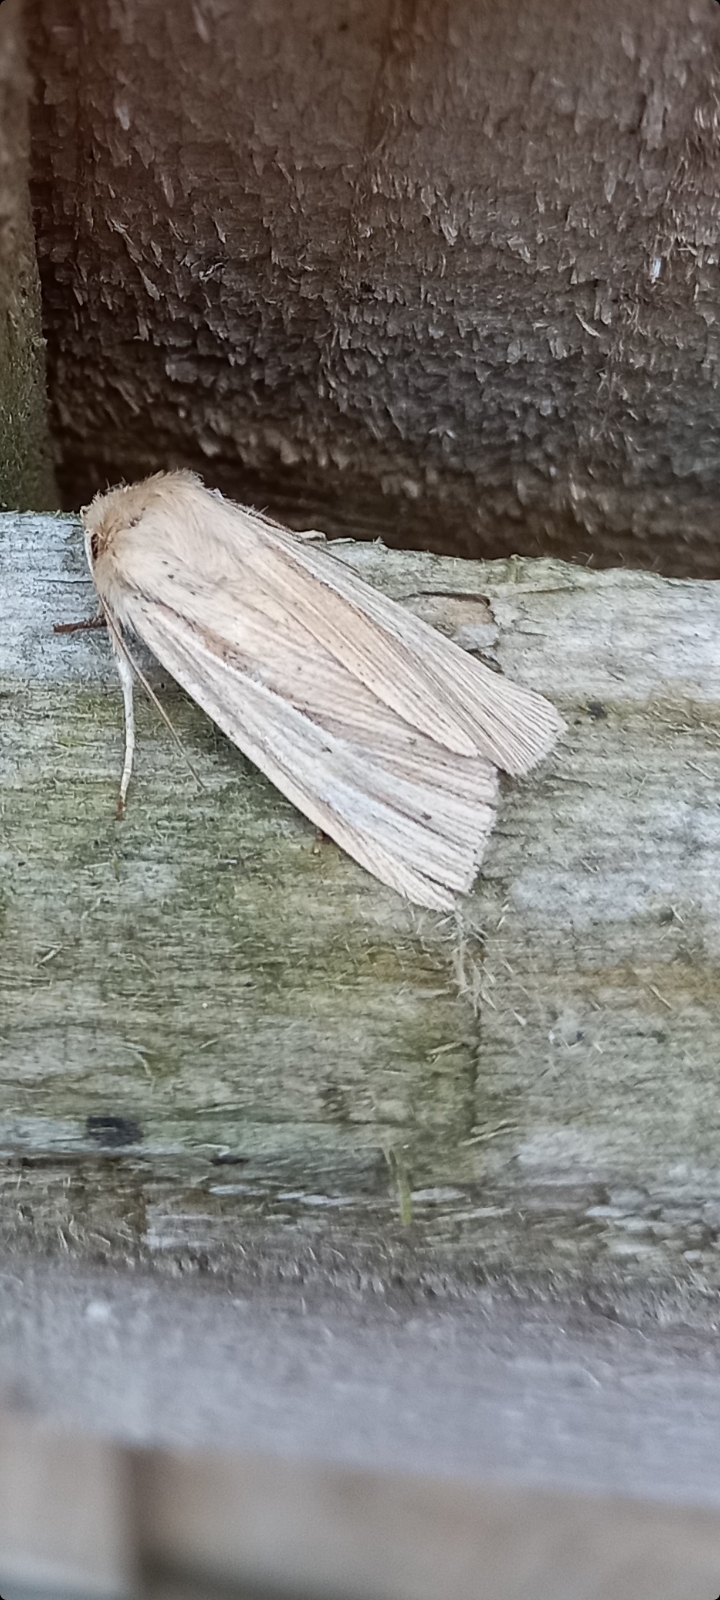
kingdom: Animalia
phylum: Arthropoda
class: Insecta
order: Lepidoptera
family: Noctuidae
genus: Mythimna
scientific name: Mythimna impura
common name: Smoky wainscot
